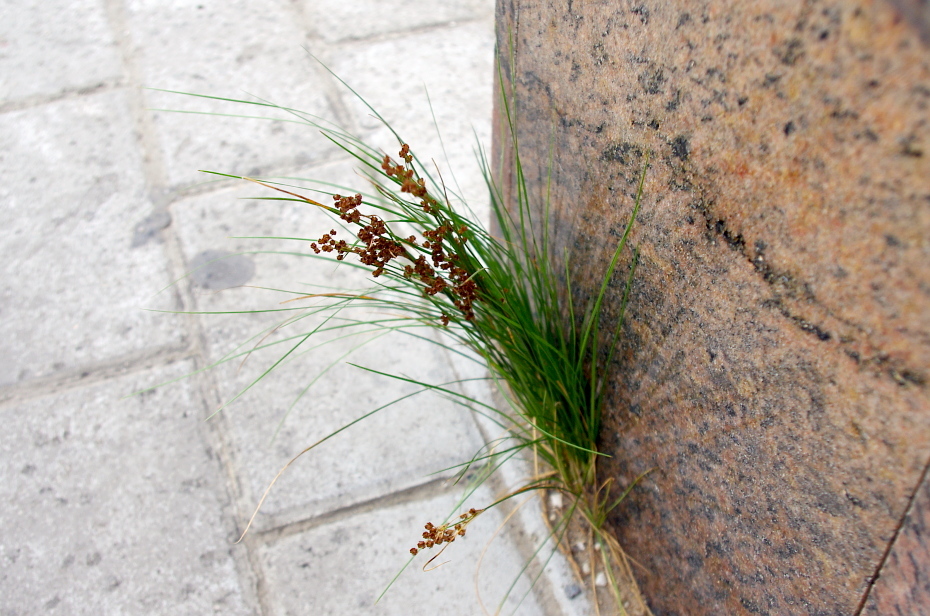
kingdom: Plantae
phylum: Tracheophyta
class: Liliopsida
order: Poales
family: Juncaceae
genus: Juncus
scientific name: Juncus compressus
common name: Round-fruited rush
